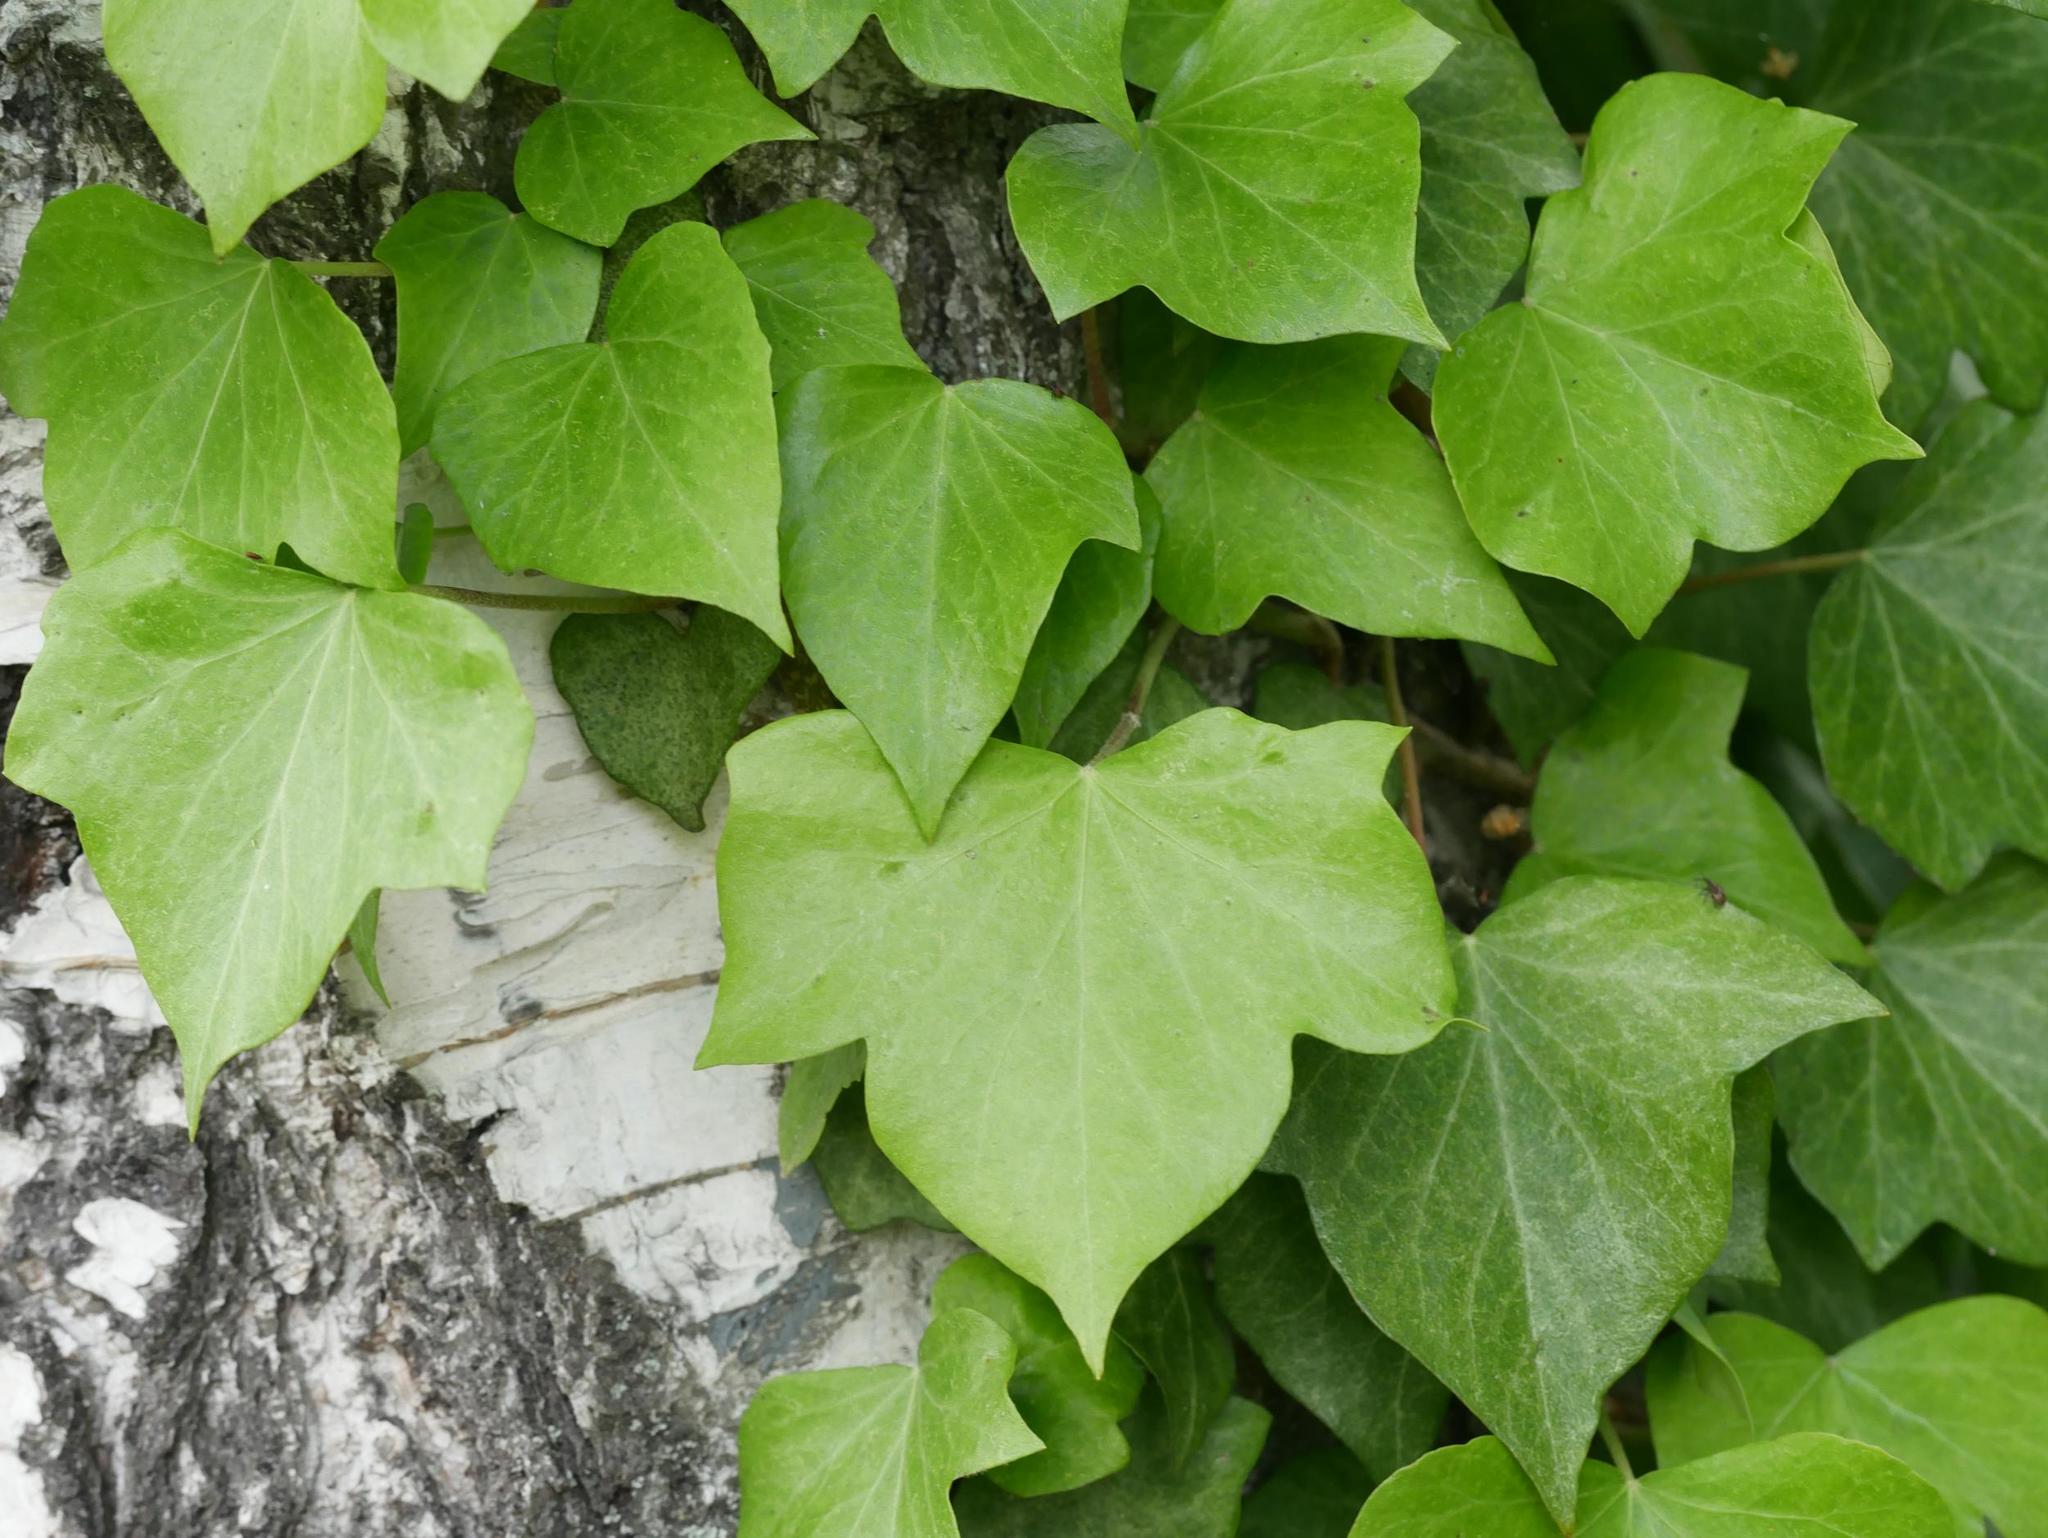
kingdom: Plantae
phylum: Tracheophyta
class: Magnoliopsida
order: Apiales
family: Araliaceae
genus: Hedera
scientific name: Hedera helix
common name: Ivy
